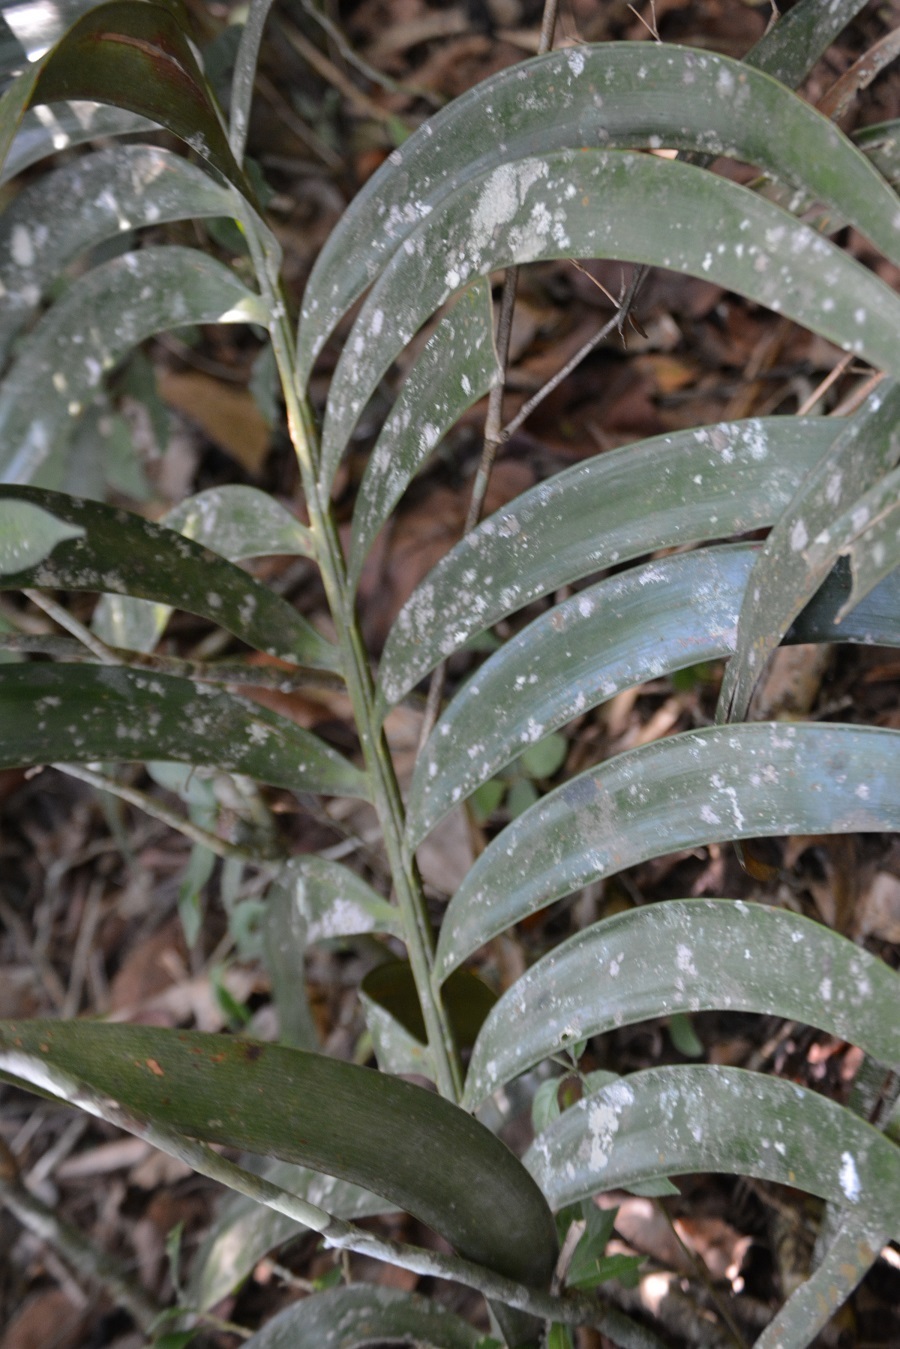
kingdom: Plantae
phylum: Tracheophyta
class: Cycadopsida
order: Cycadales
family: Zamiaceae
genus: Ceratozamia
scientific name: Ceratozamia mexicana
